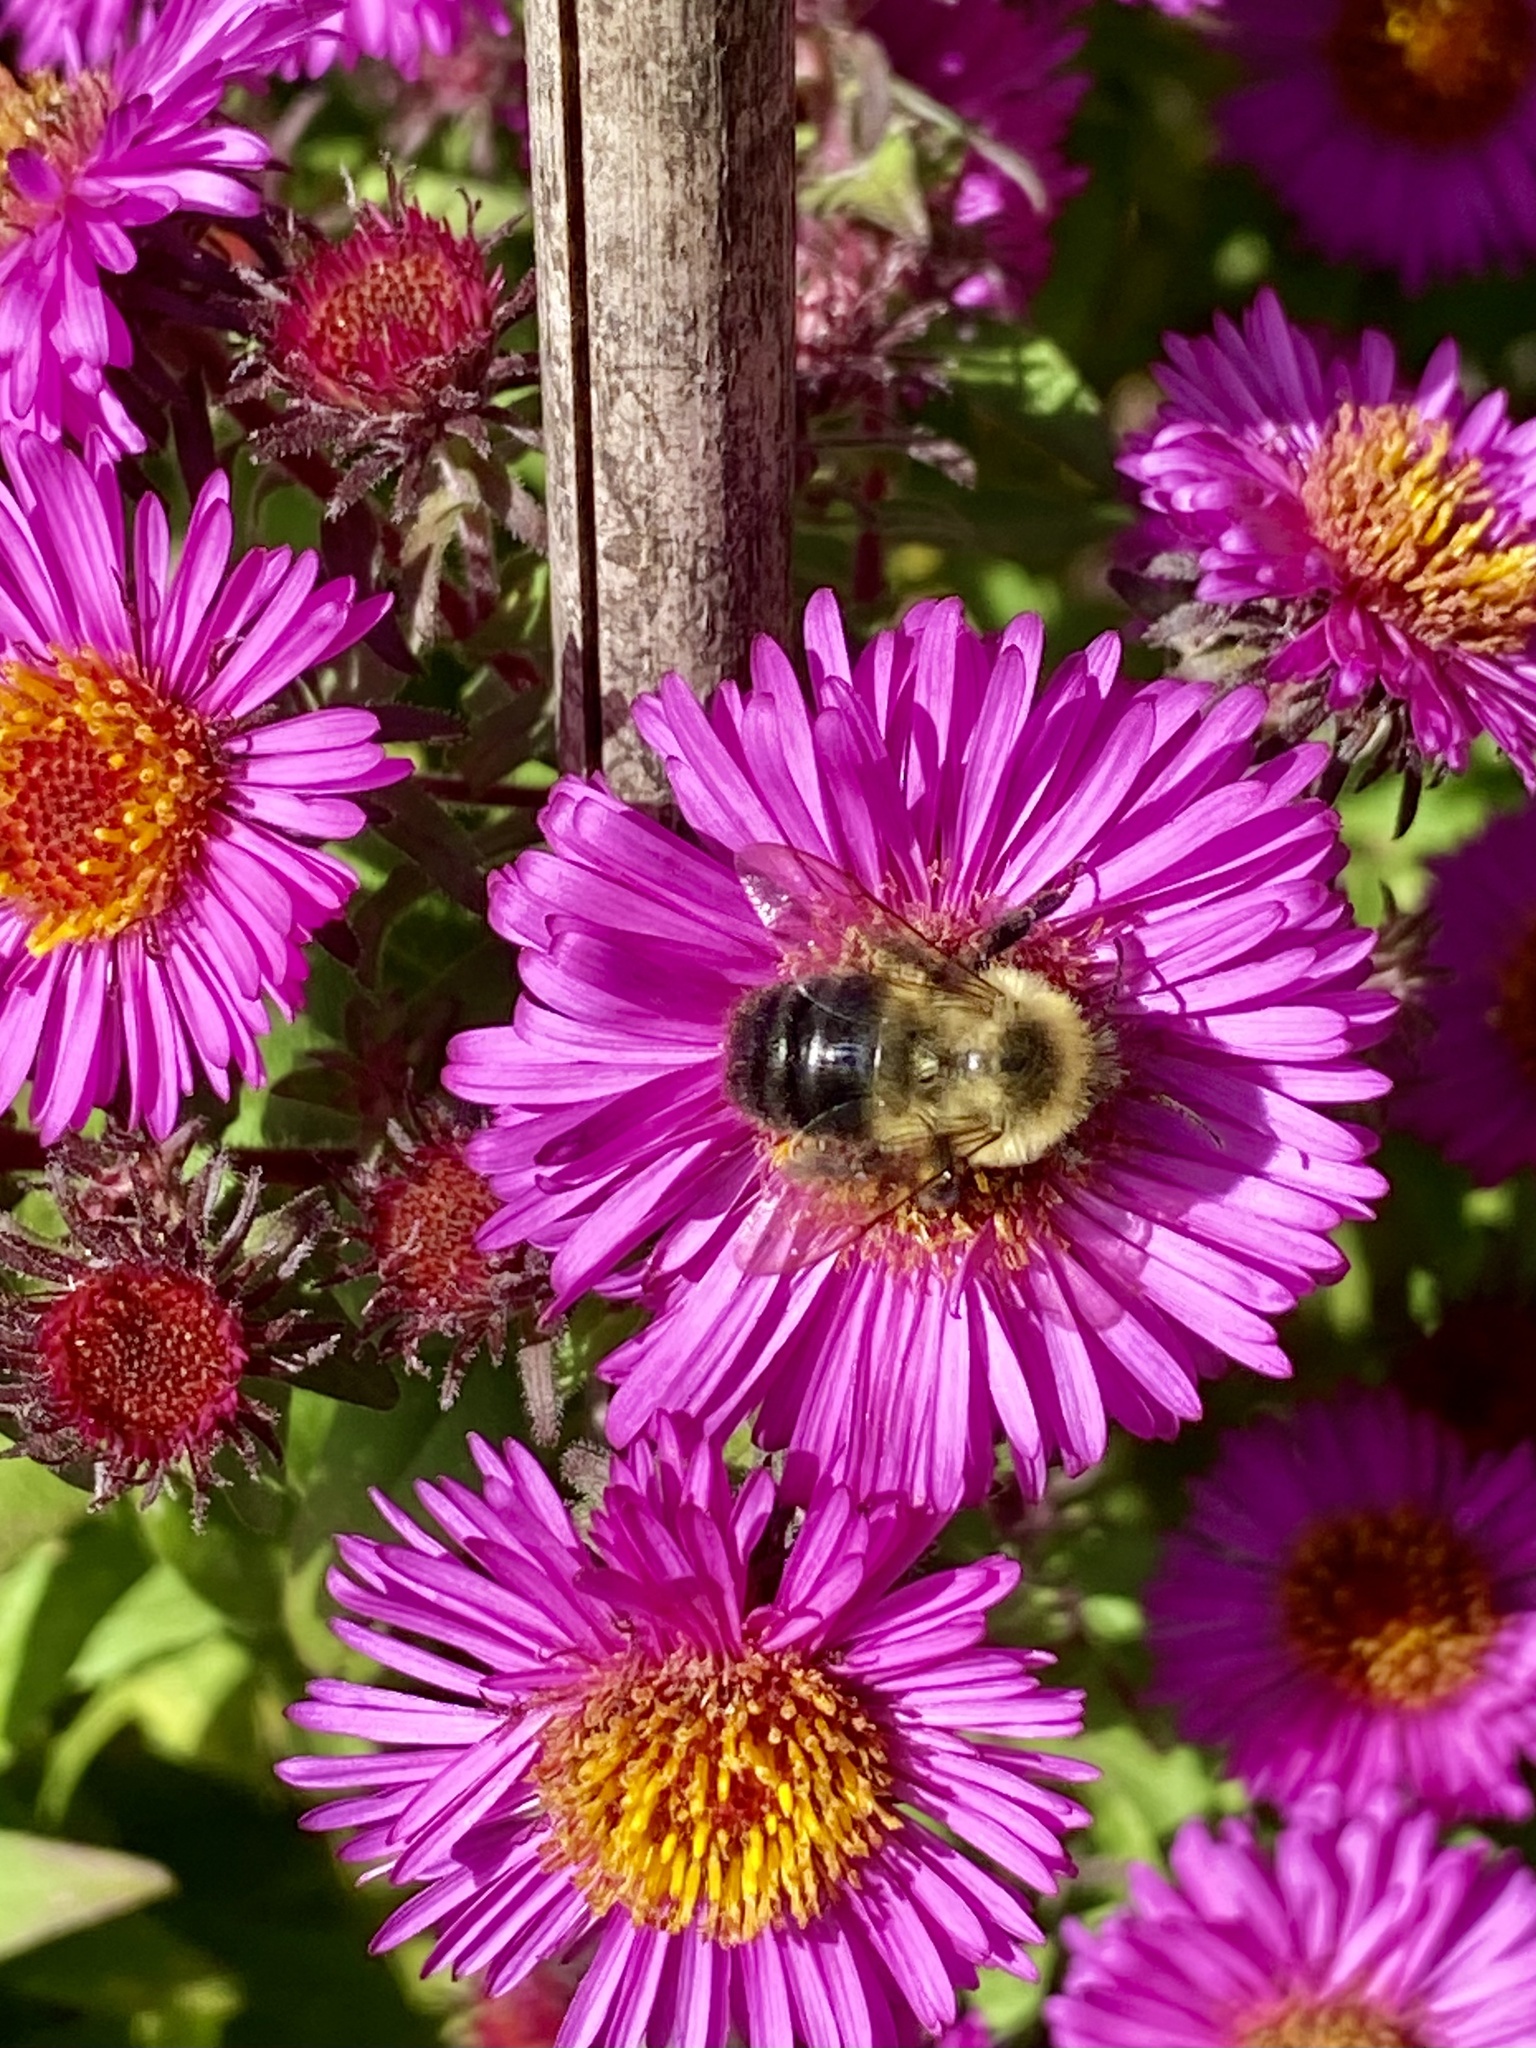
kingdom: Animalia
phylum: Arthropoda
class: Insecta
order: Hymenoptera
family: Apidae
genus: Bombus
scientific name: Bombus impatiens
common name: Common eastern bumble bee
